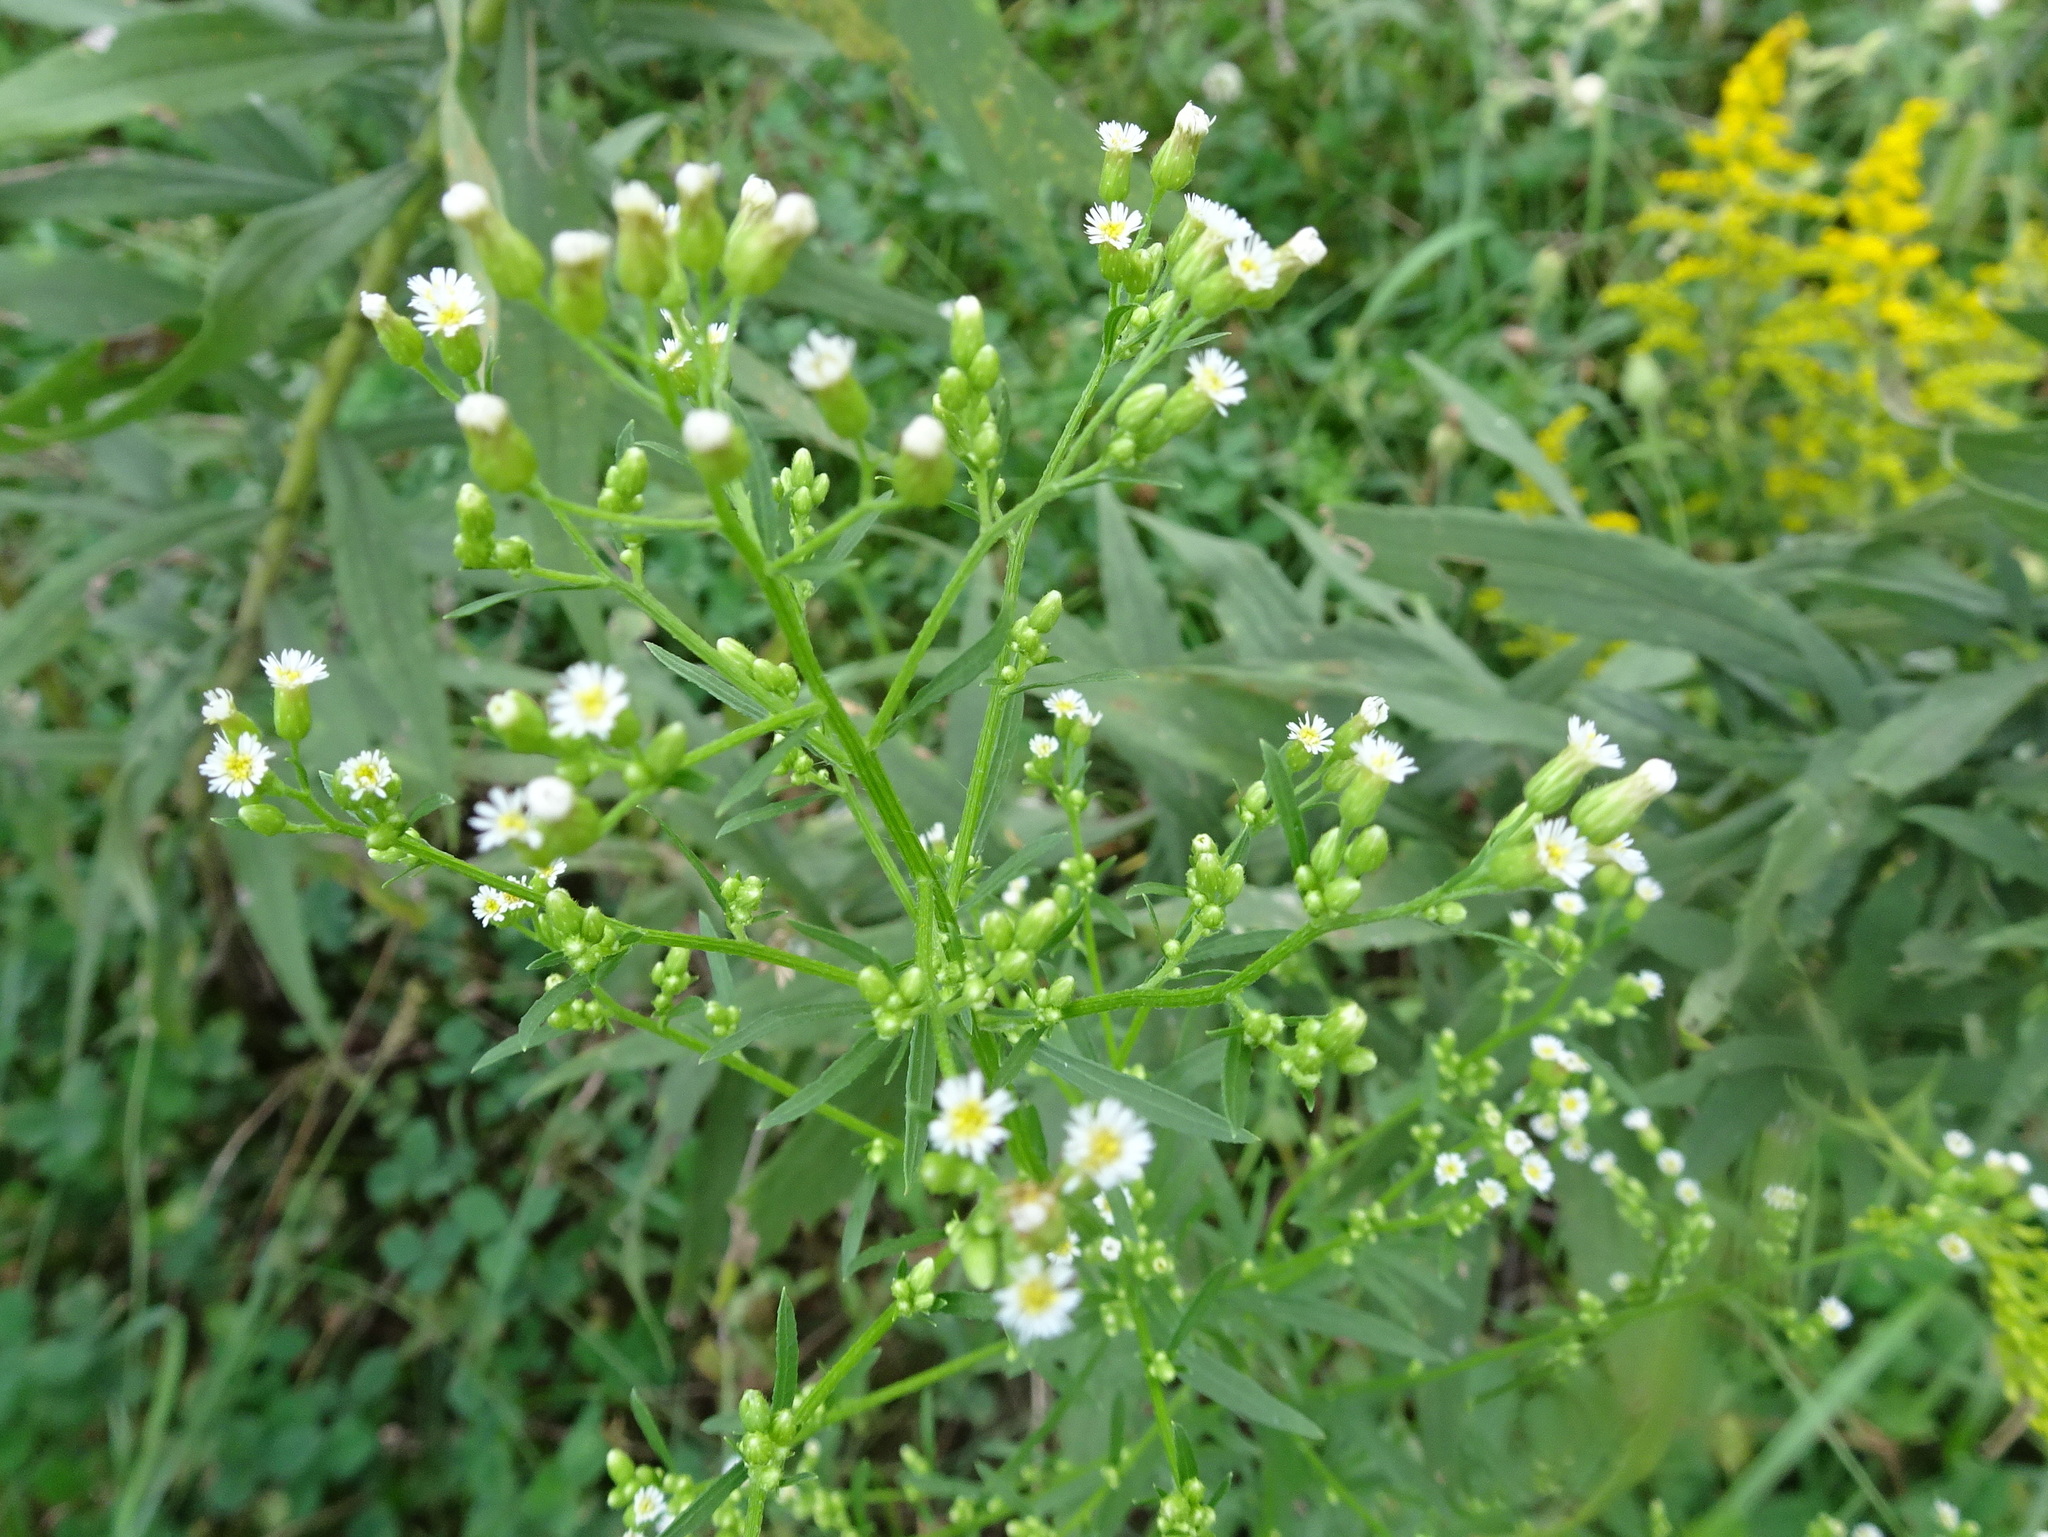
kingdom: Plantae
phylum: Tracheophyta
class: Magnoliopsida
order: Asterales
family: Asteraceae
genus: Erigeron
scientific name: Erigeron canadensis
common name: Canadian fleabane
